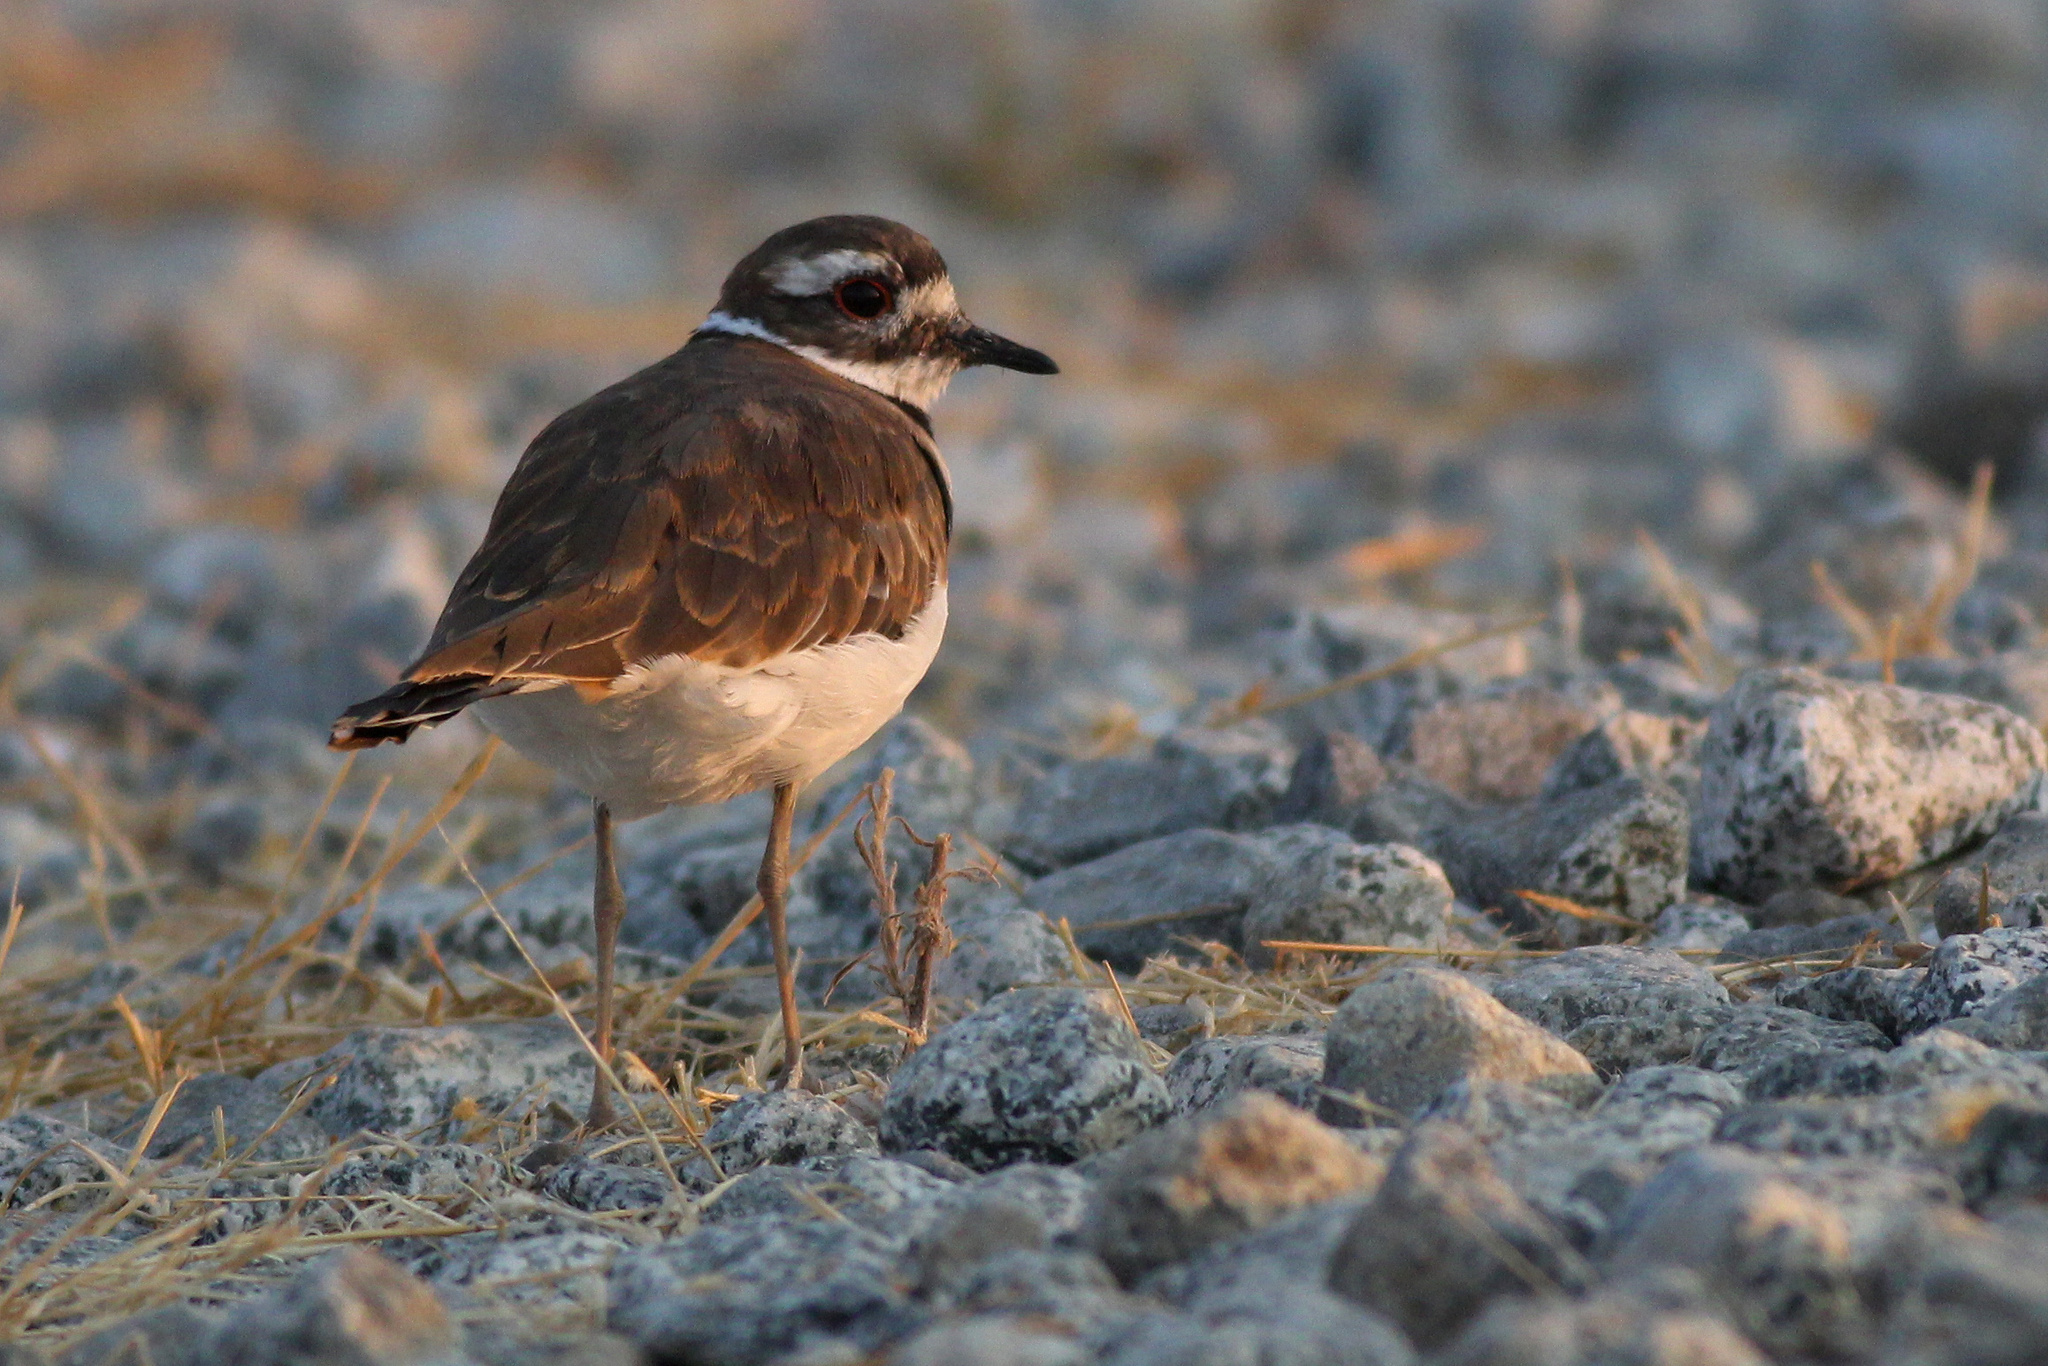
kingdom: Animalia
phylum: Chordata
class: Aves
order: Charadriiformes
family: Charadriidae
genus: Charadrius
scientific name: Charadrius vociferus
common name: Killdeer
